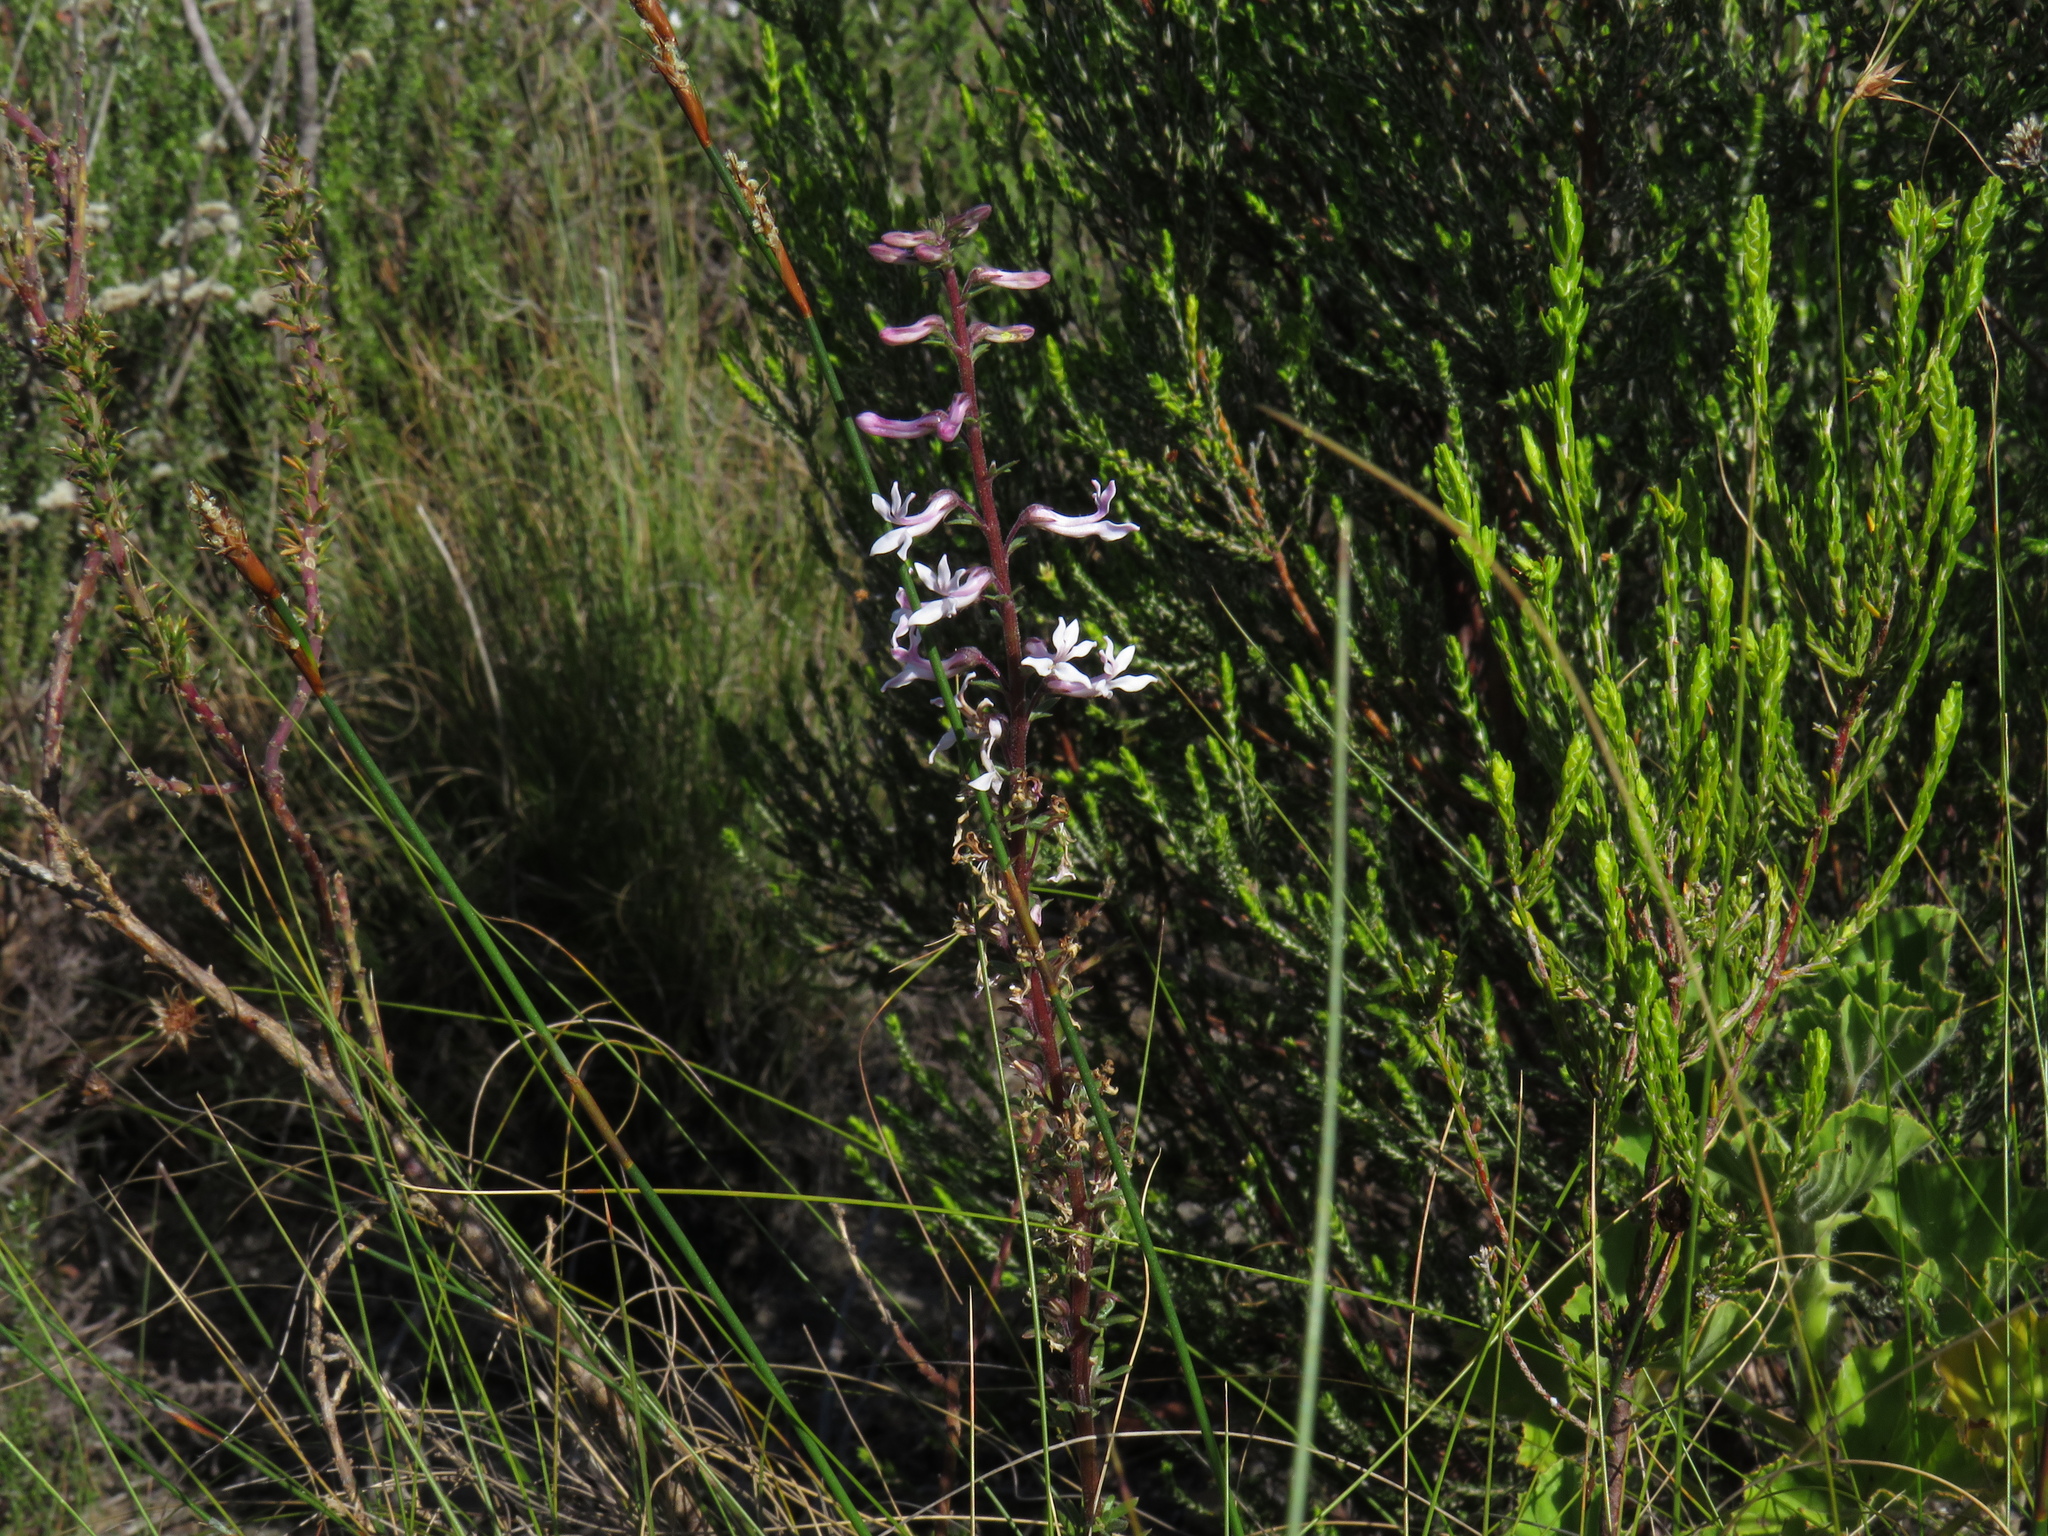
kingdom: Plantae
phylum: Tracheophyta
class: Magnoliopsida
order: Asterales
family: Campanulaceae
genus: Cyphia
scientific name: Cyphia bulbosa
